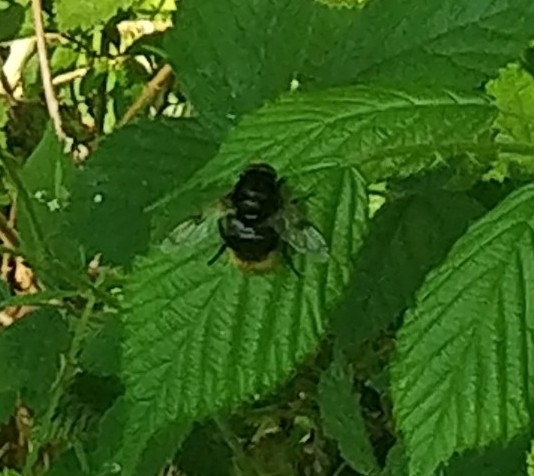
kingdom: Animalia
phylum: Arthropoda
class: Insecta
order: Diptera
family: Syrphidae
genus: Volucella
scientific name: Volucella bombylans
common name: Bumble bee hover fly
